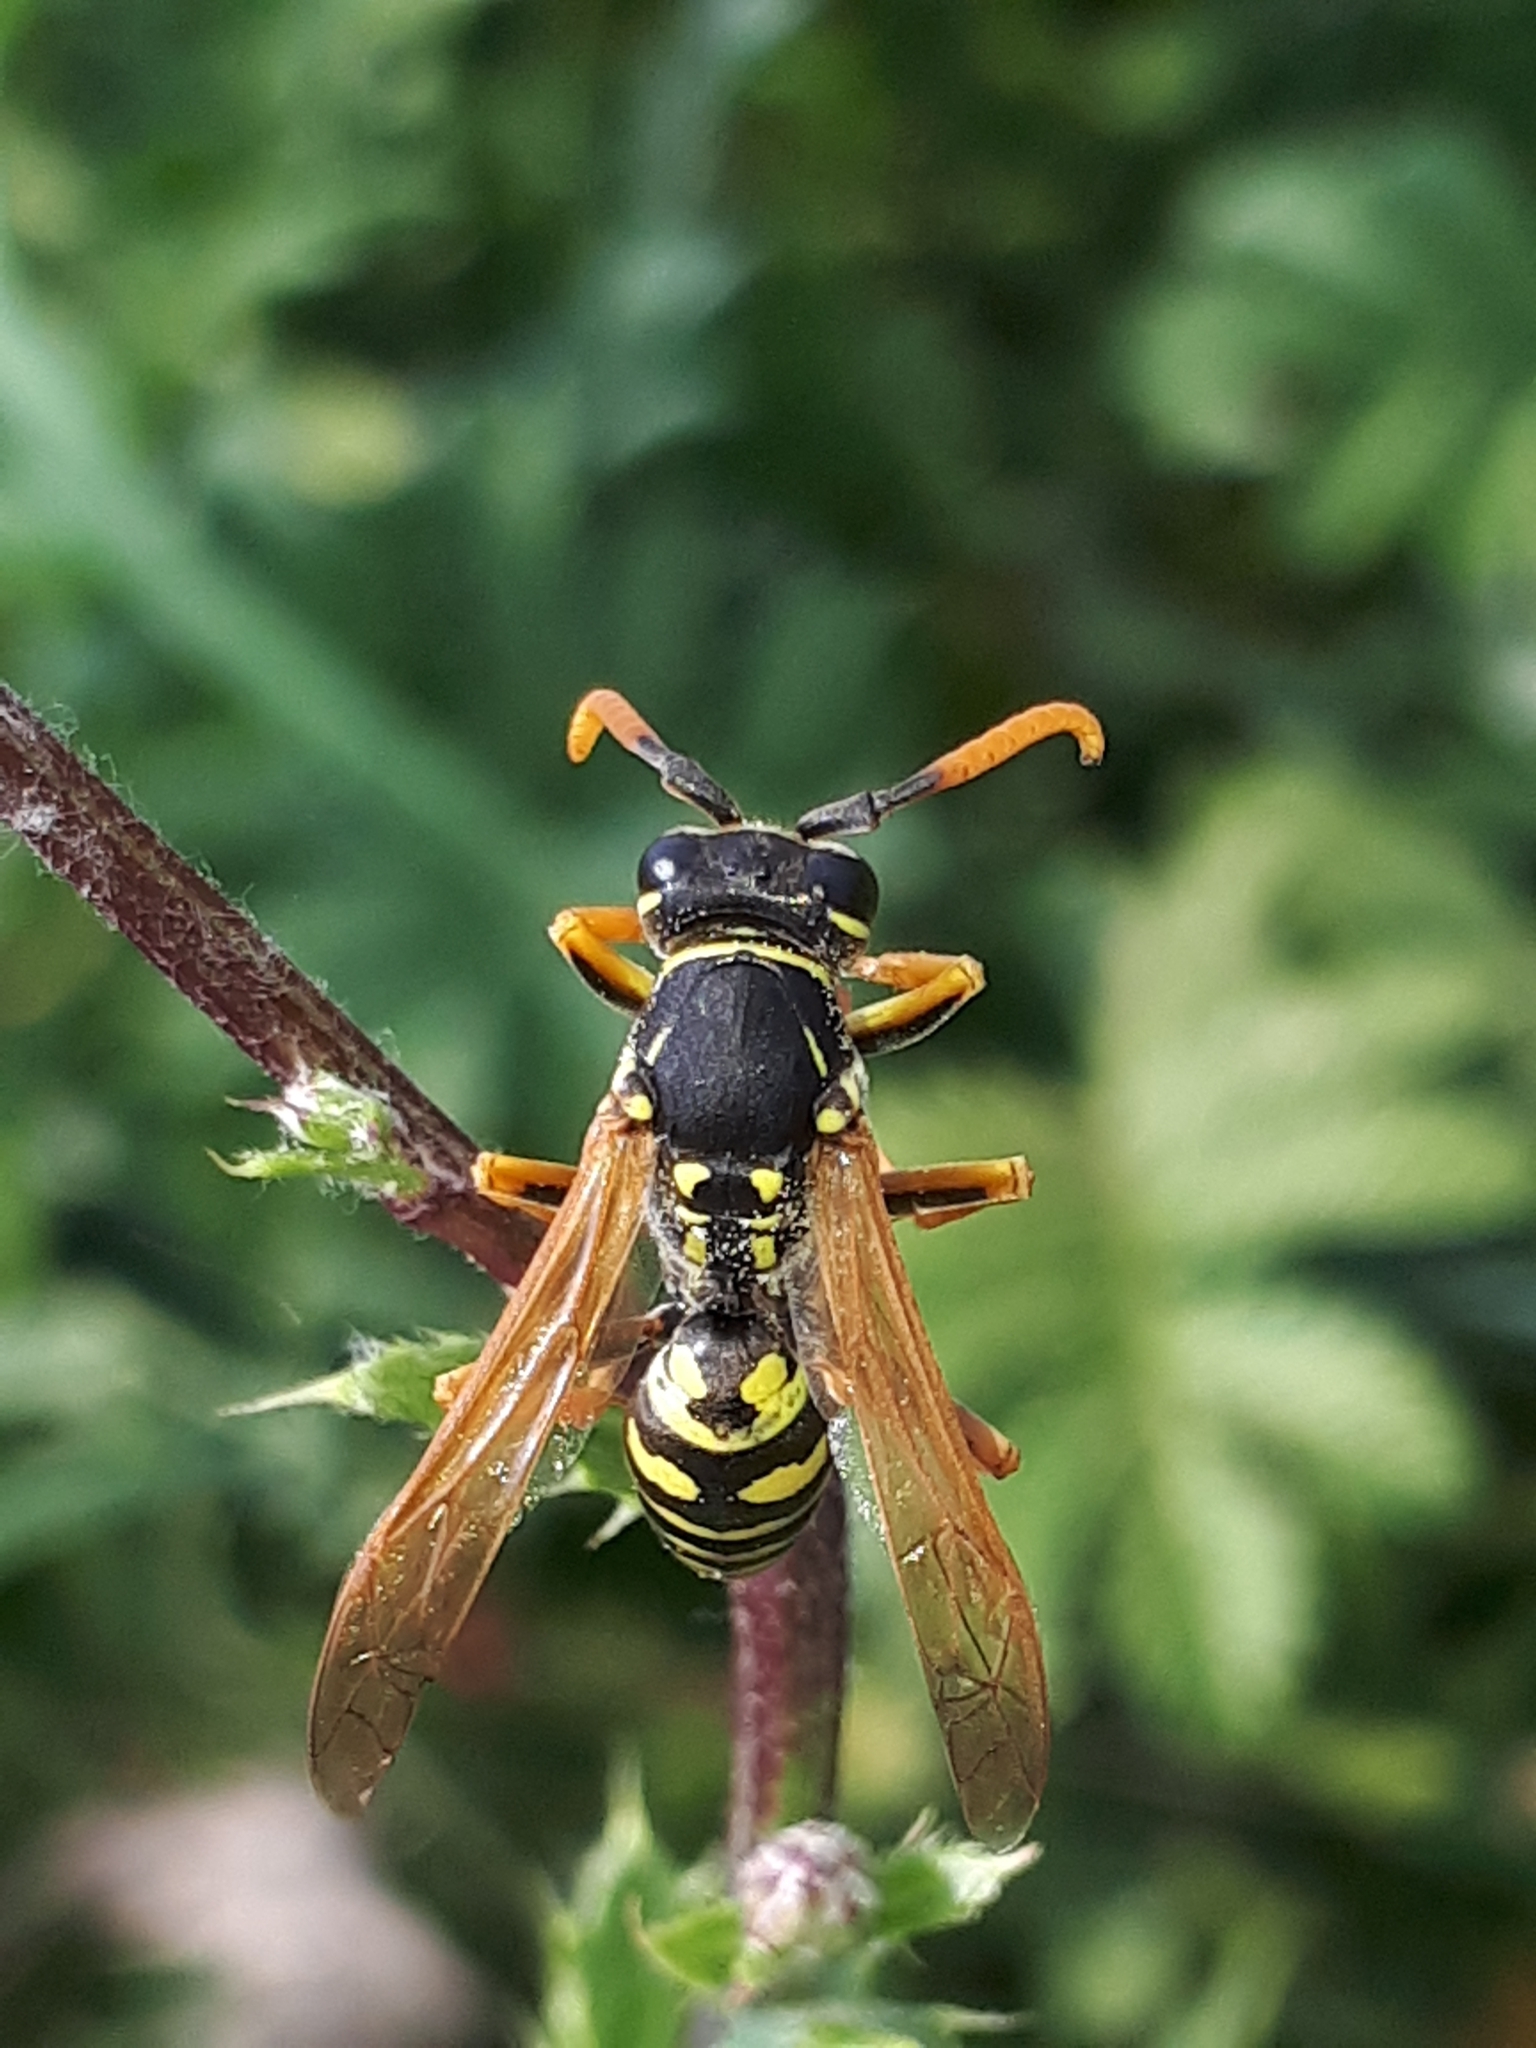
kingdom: Animalia
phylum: Arthropoda
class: Insecta
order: Hymenoptera
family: Eumenidae
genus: Polistes
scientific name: Polistes dominula
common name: Paper wasp
